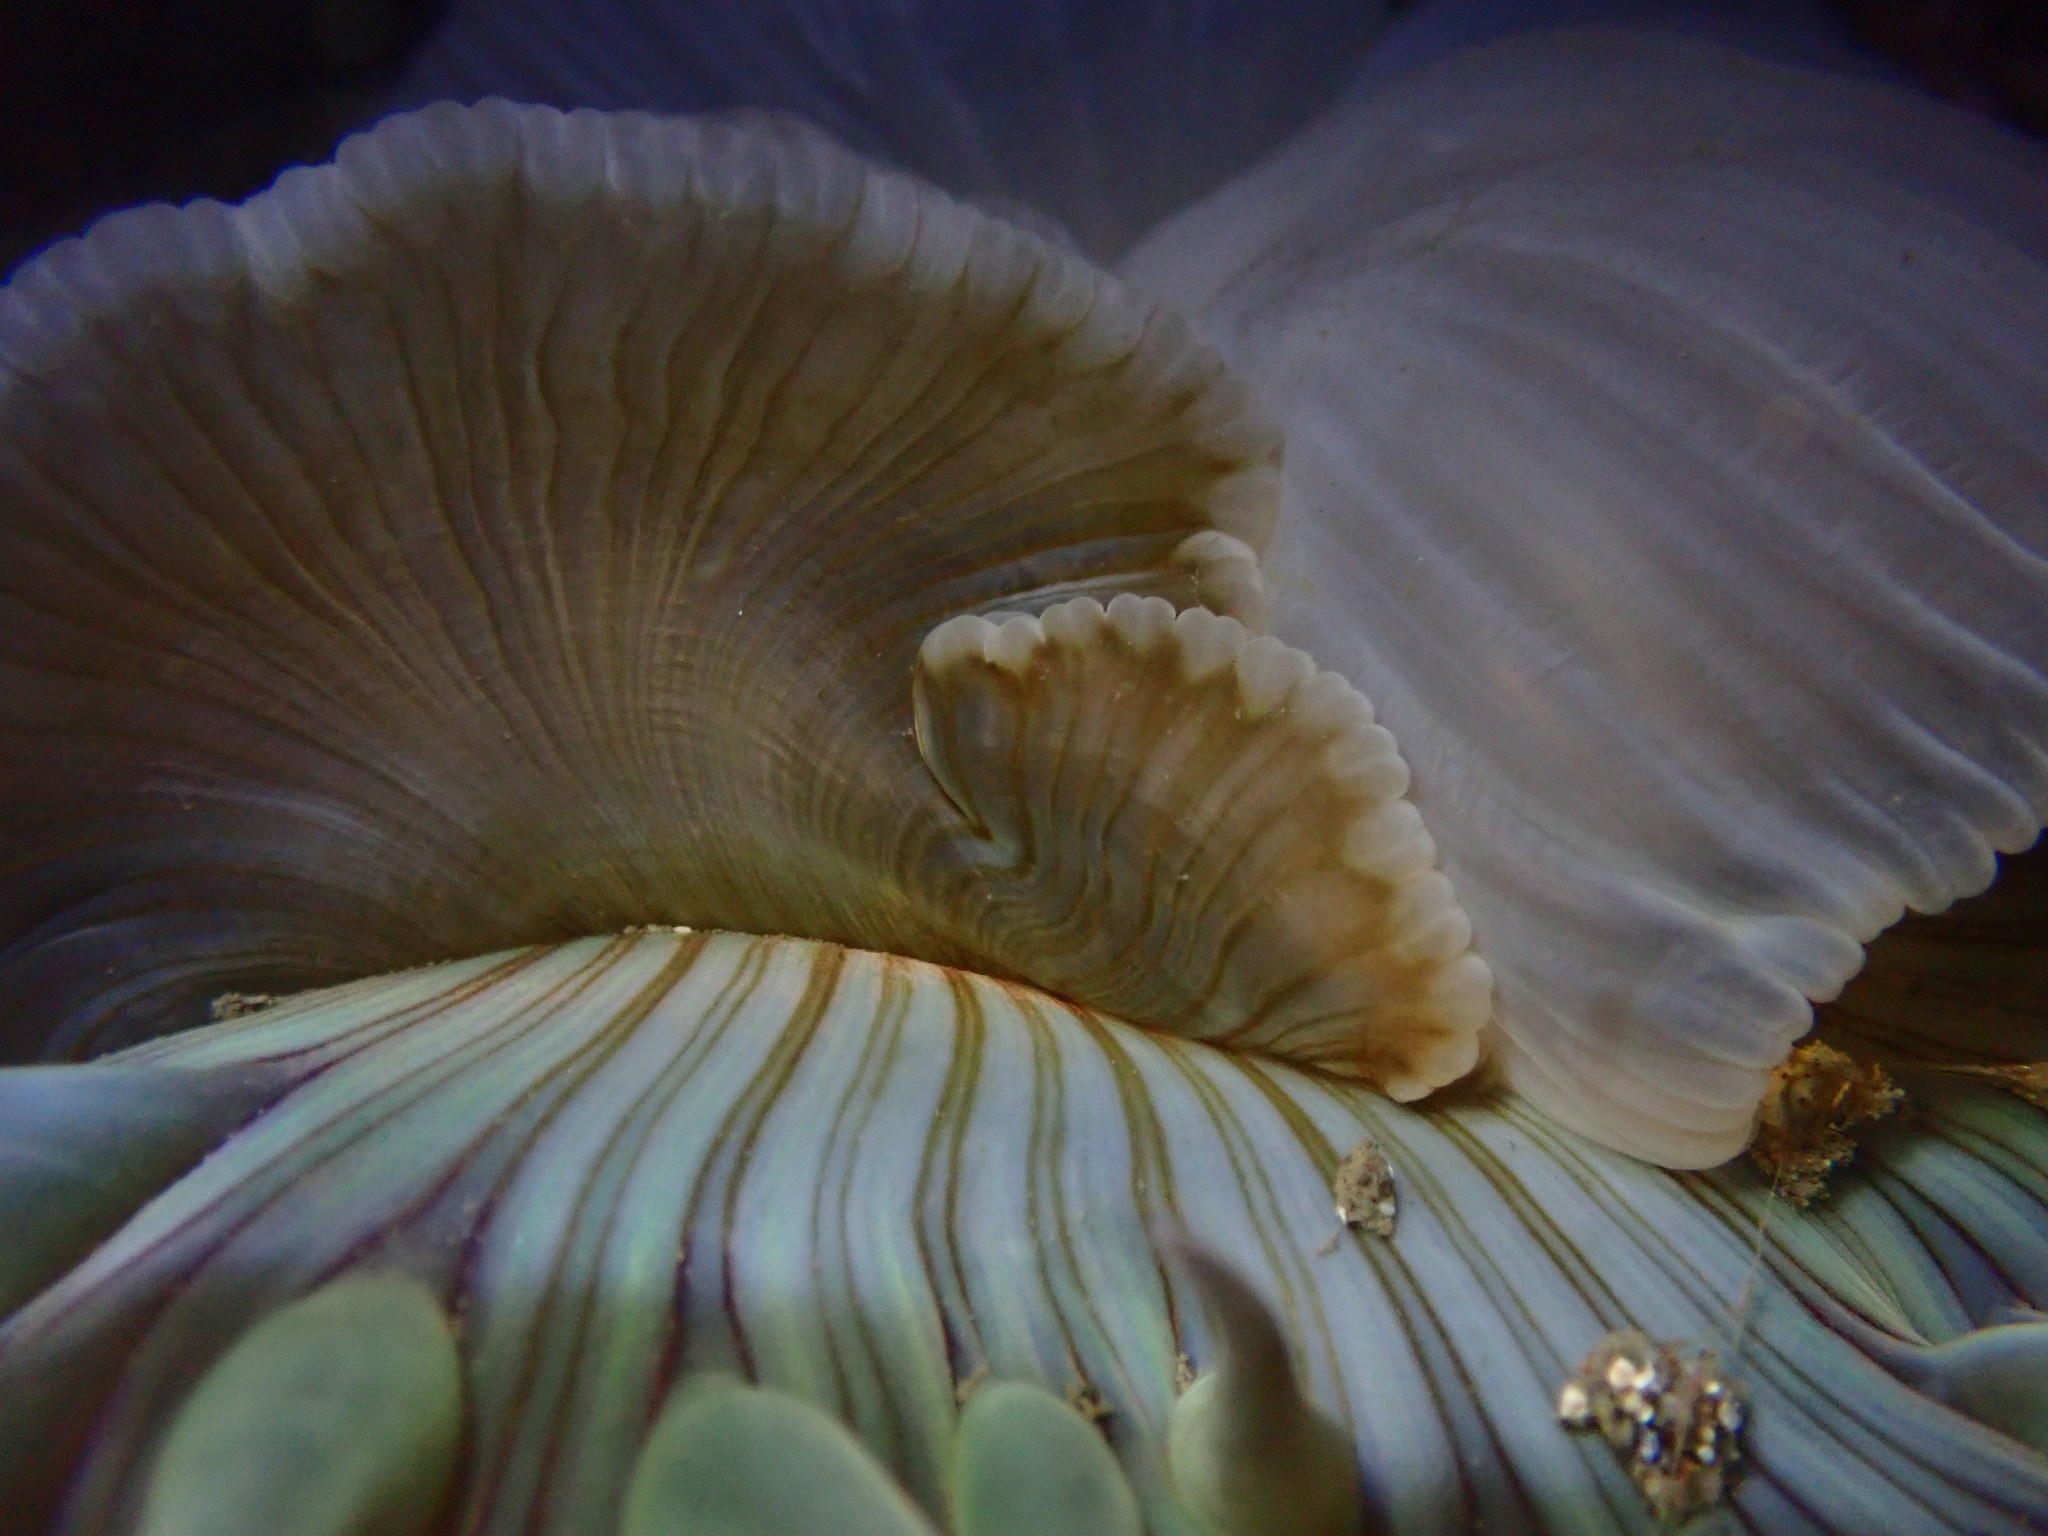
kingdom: Animalia
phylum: Cnidaria
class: Anthozoa
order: Actiniaria
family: Actiniidae
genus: Anthopleura
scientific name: Anthopleura sola
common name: Sun anemone
